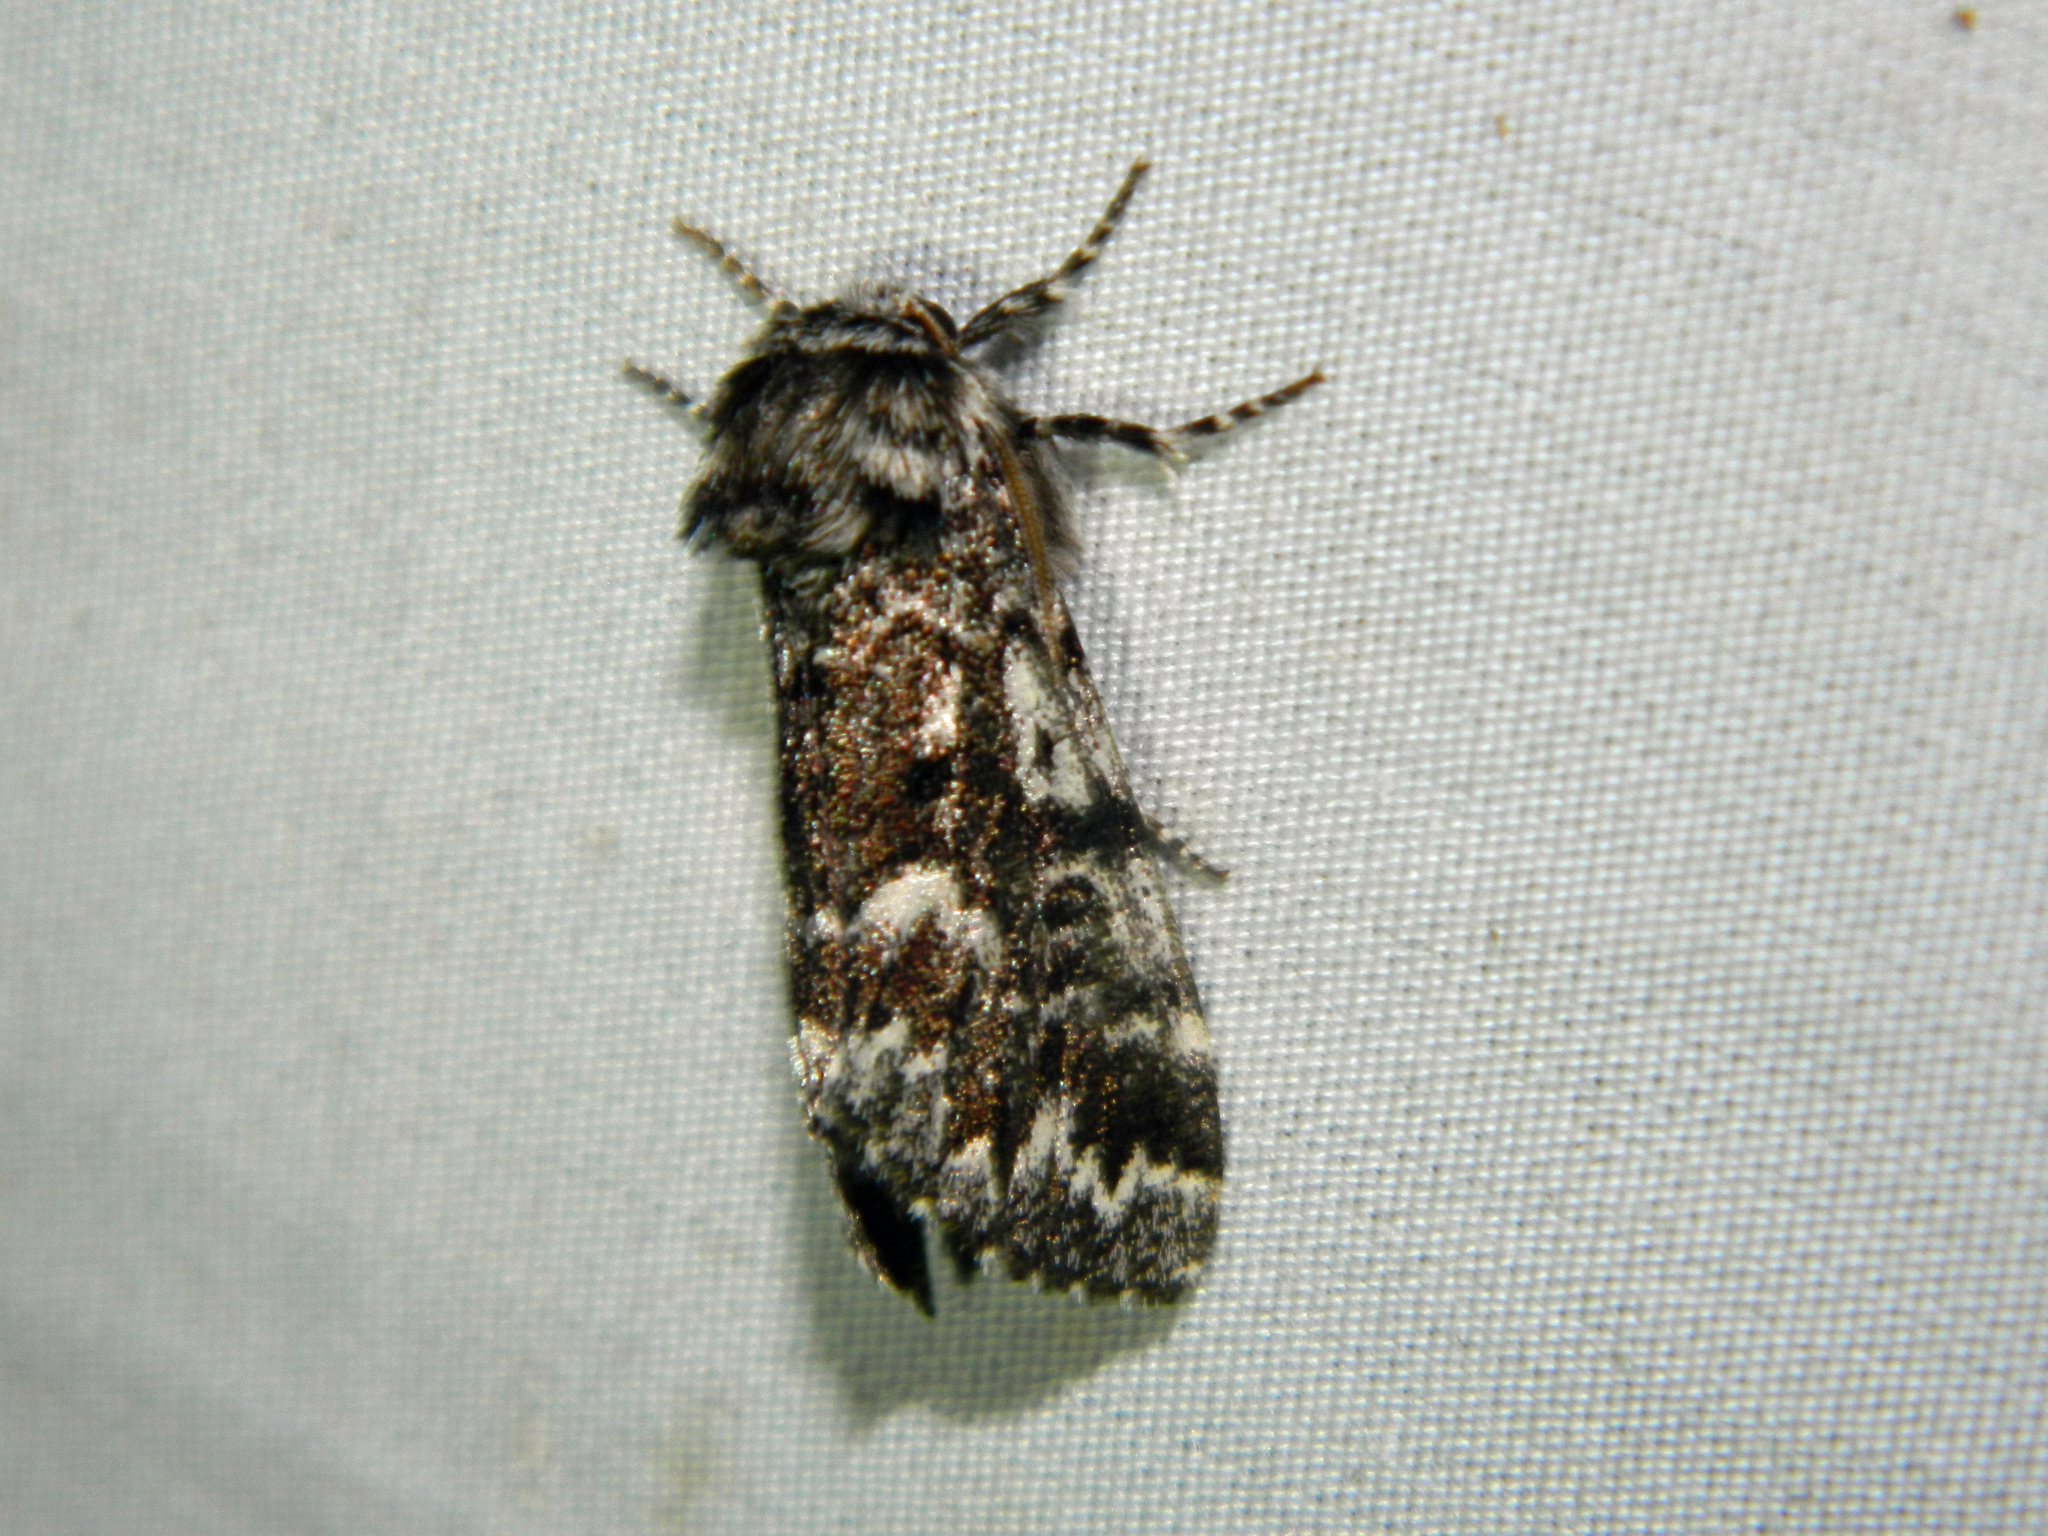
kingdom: Animalia
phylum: Arthropoda
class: Insecta
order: Lepidoptera
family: Noctuidae
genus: Panthea
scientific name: Panthea acronyctoides
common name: Black zigzag moth
